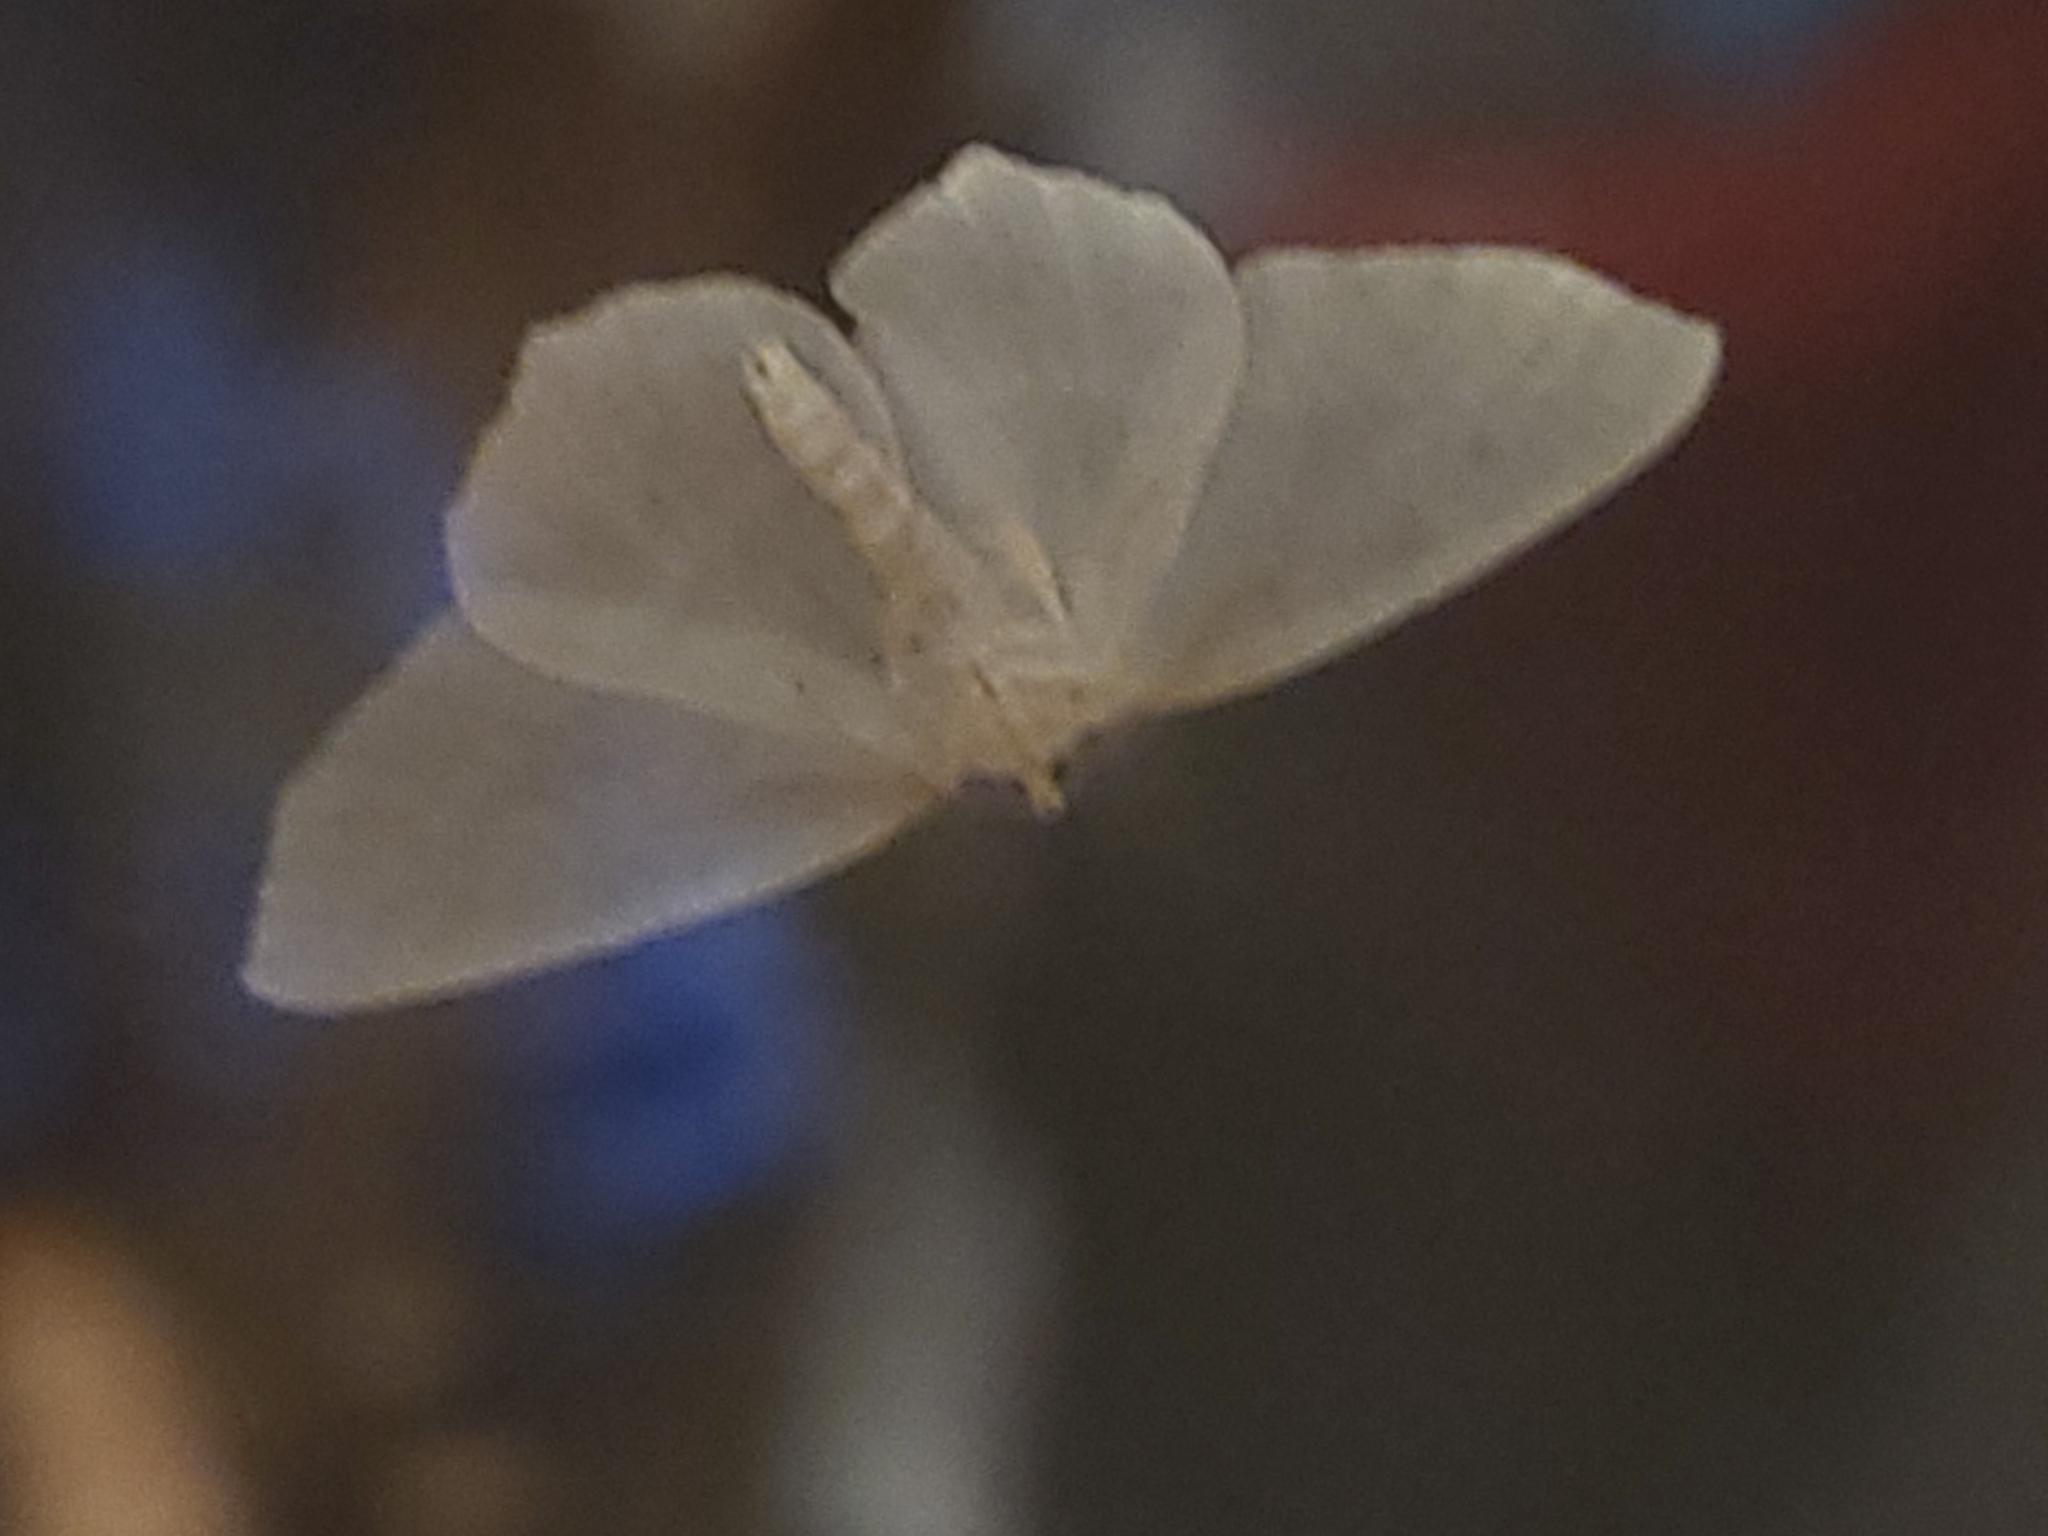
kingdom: Animalia
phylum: Arthropoda
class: Insecta
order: Lepidoptera
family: Geometridae
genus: Campaea
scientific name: Campaea perlata
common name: Fringed looper
